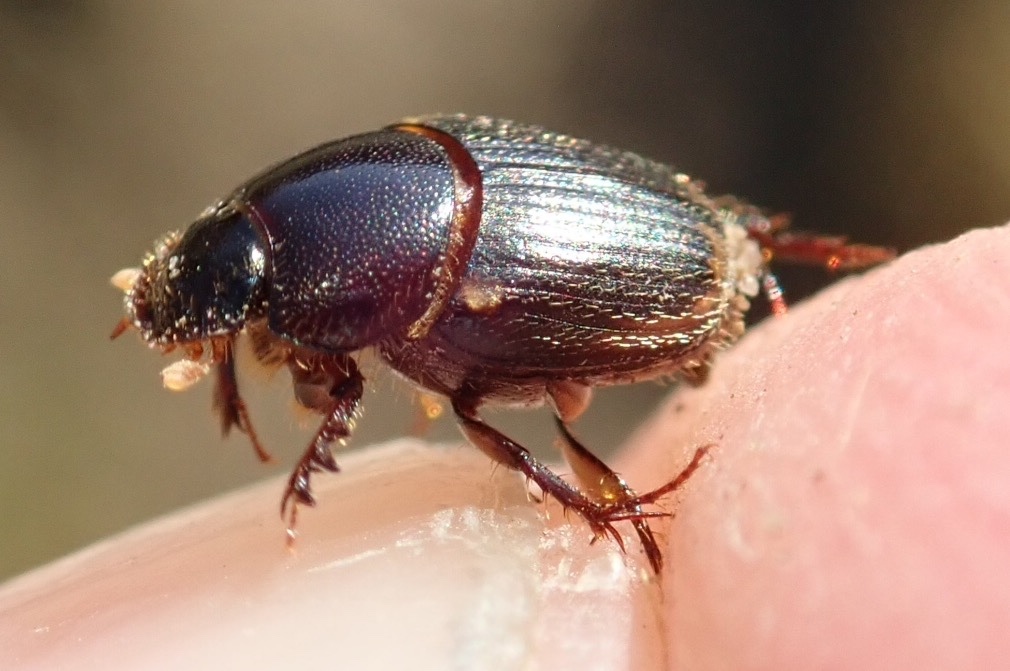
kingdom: Animalia
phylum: Arthropoda
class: Insecta
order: Coleoptera
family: Scarabaeidae
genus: Onthophagus
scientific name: Onthophagus vinctus
